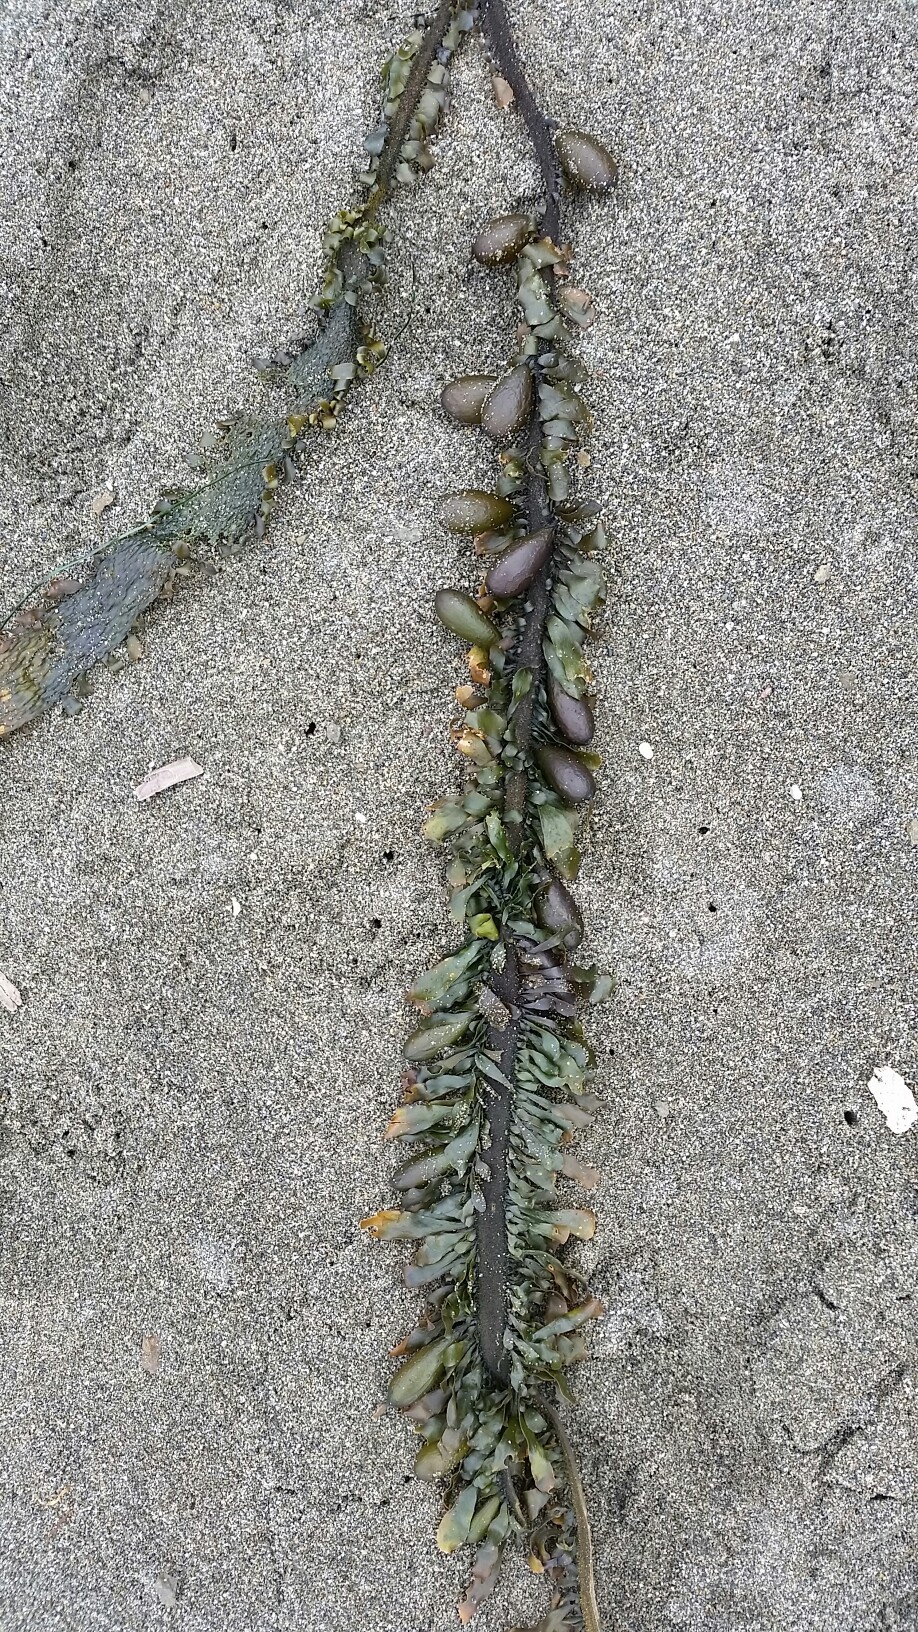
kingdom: Chromista
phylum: Ochrophyta
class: Phaeophyceae
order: Laminariales
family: Lessoniaceae
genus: Egregia
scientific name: Egregia menziesii
